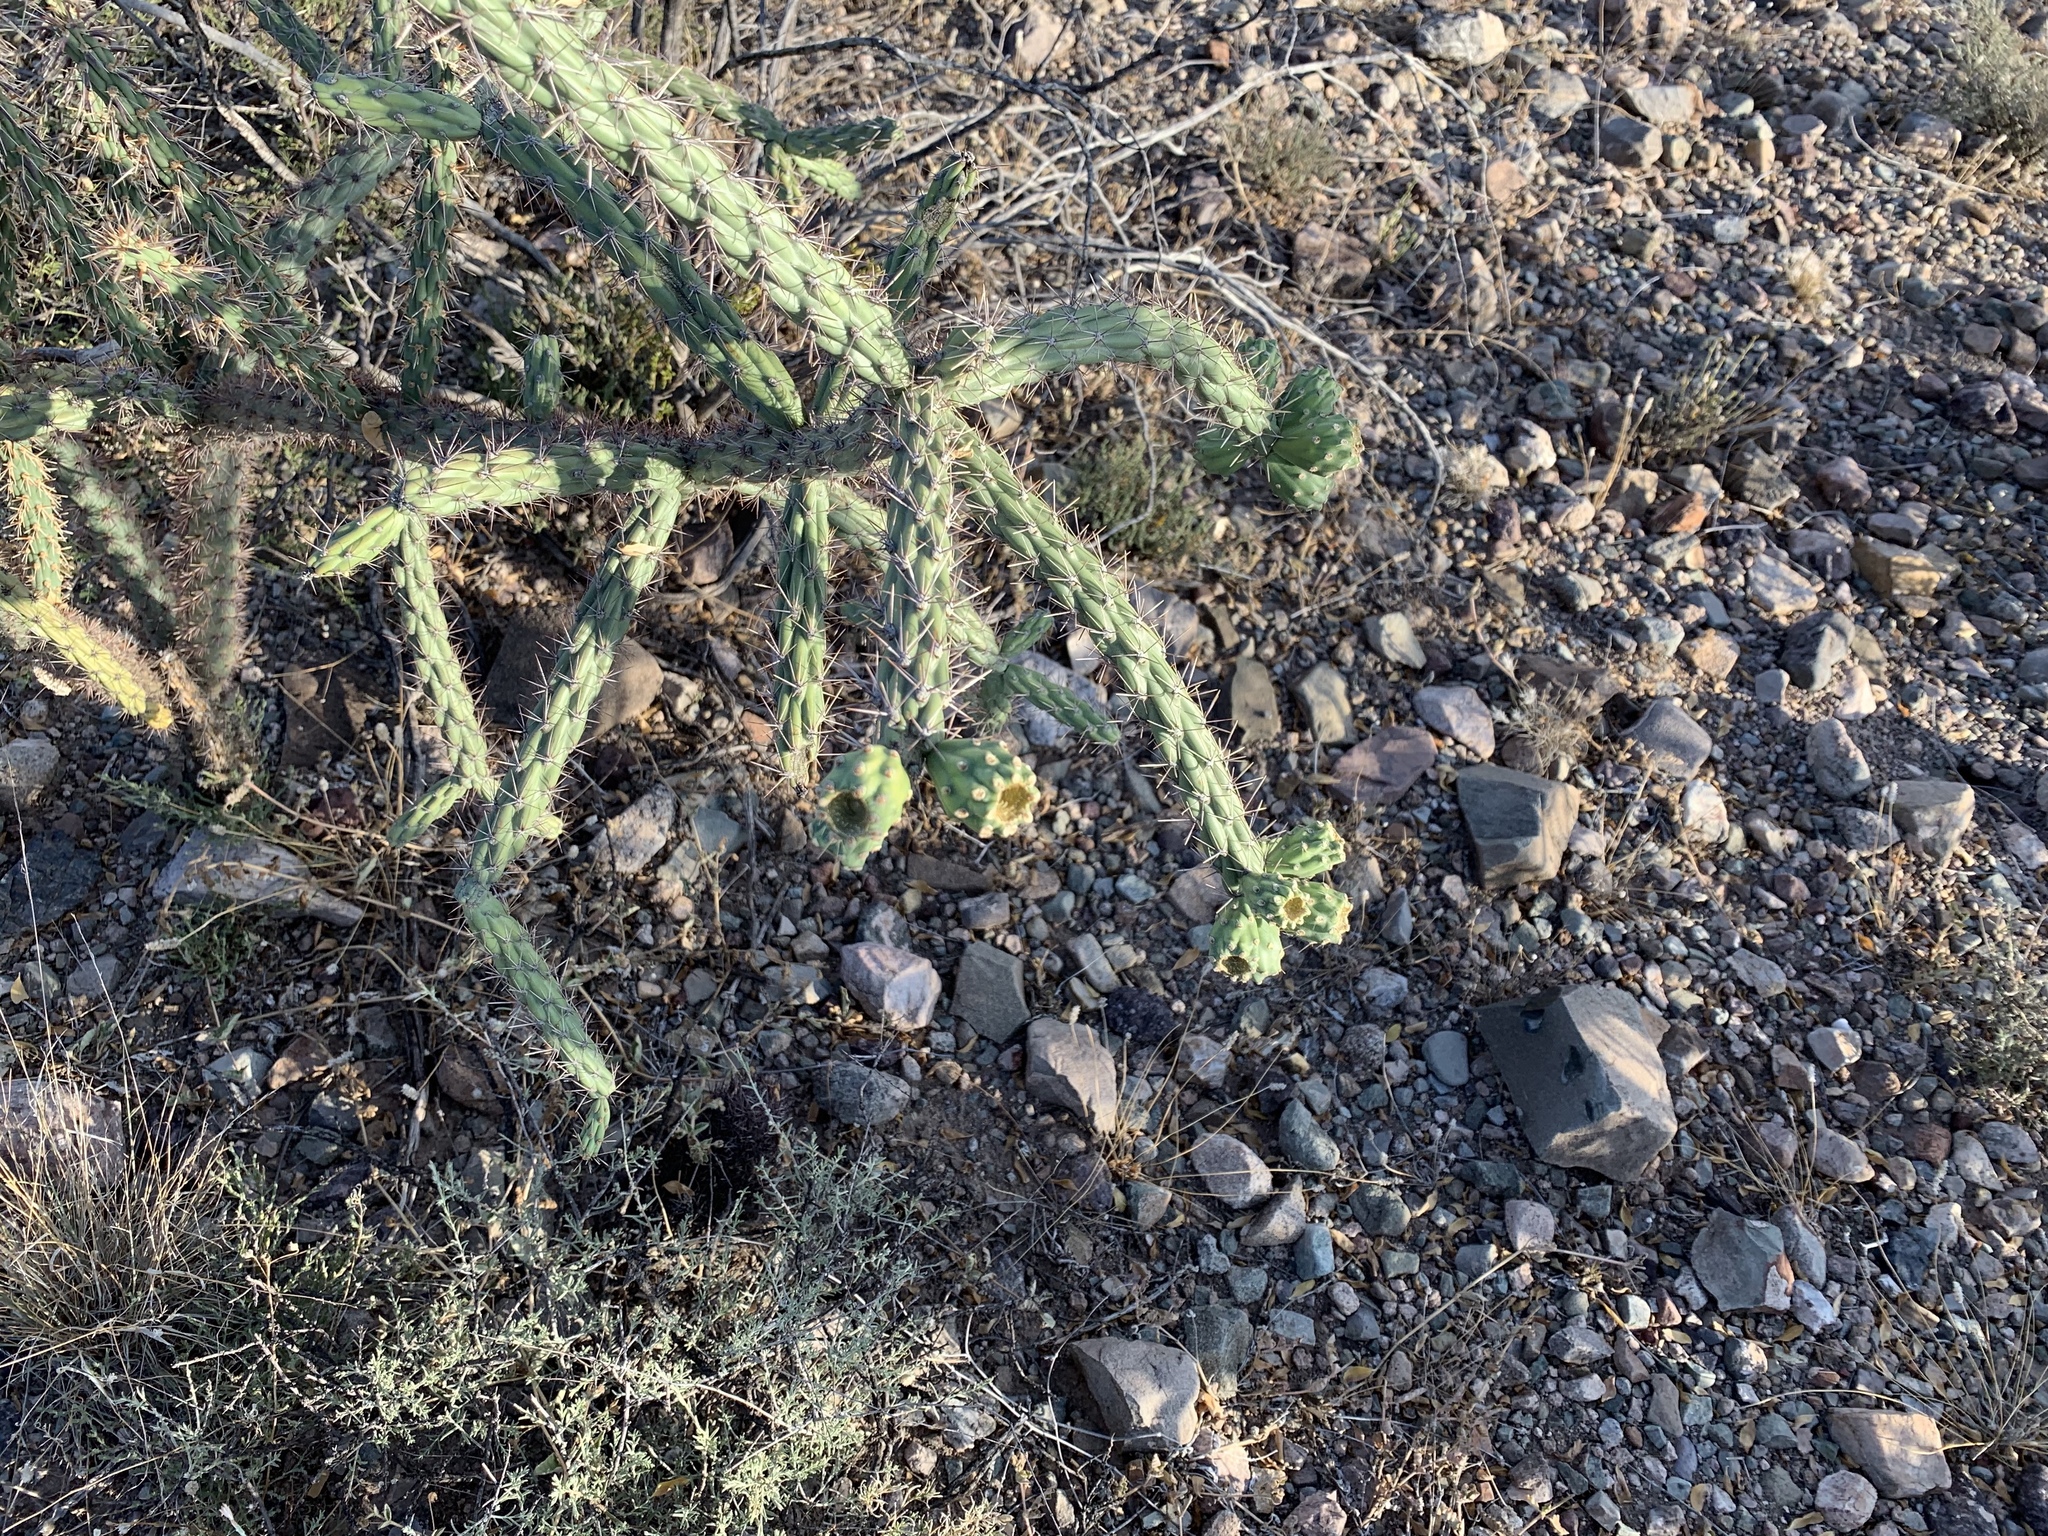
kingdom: Plantae
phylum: Tracheophyta
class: Magnoliopsida
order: Caryophyllales
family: Cactaceae
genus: Cylindropuntia
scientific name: Cylindropuntia thurberi
